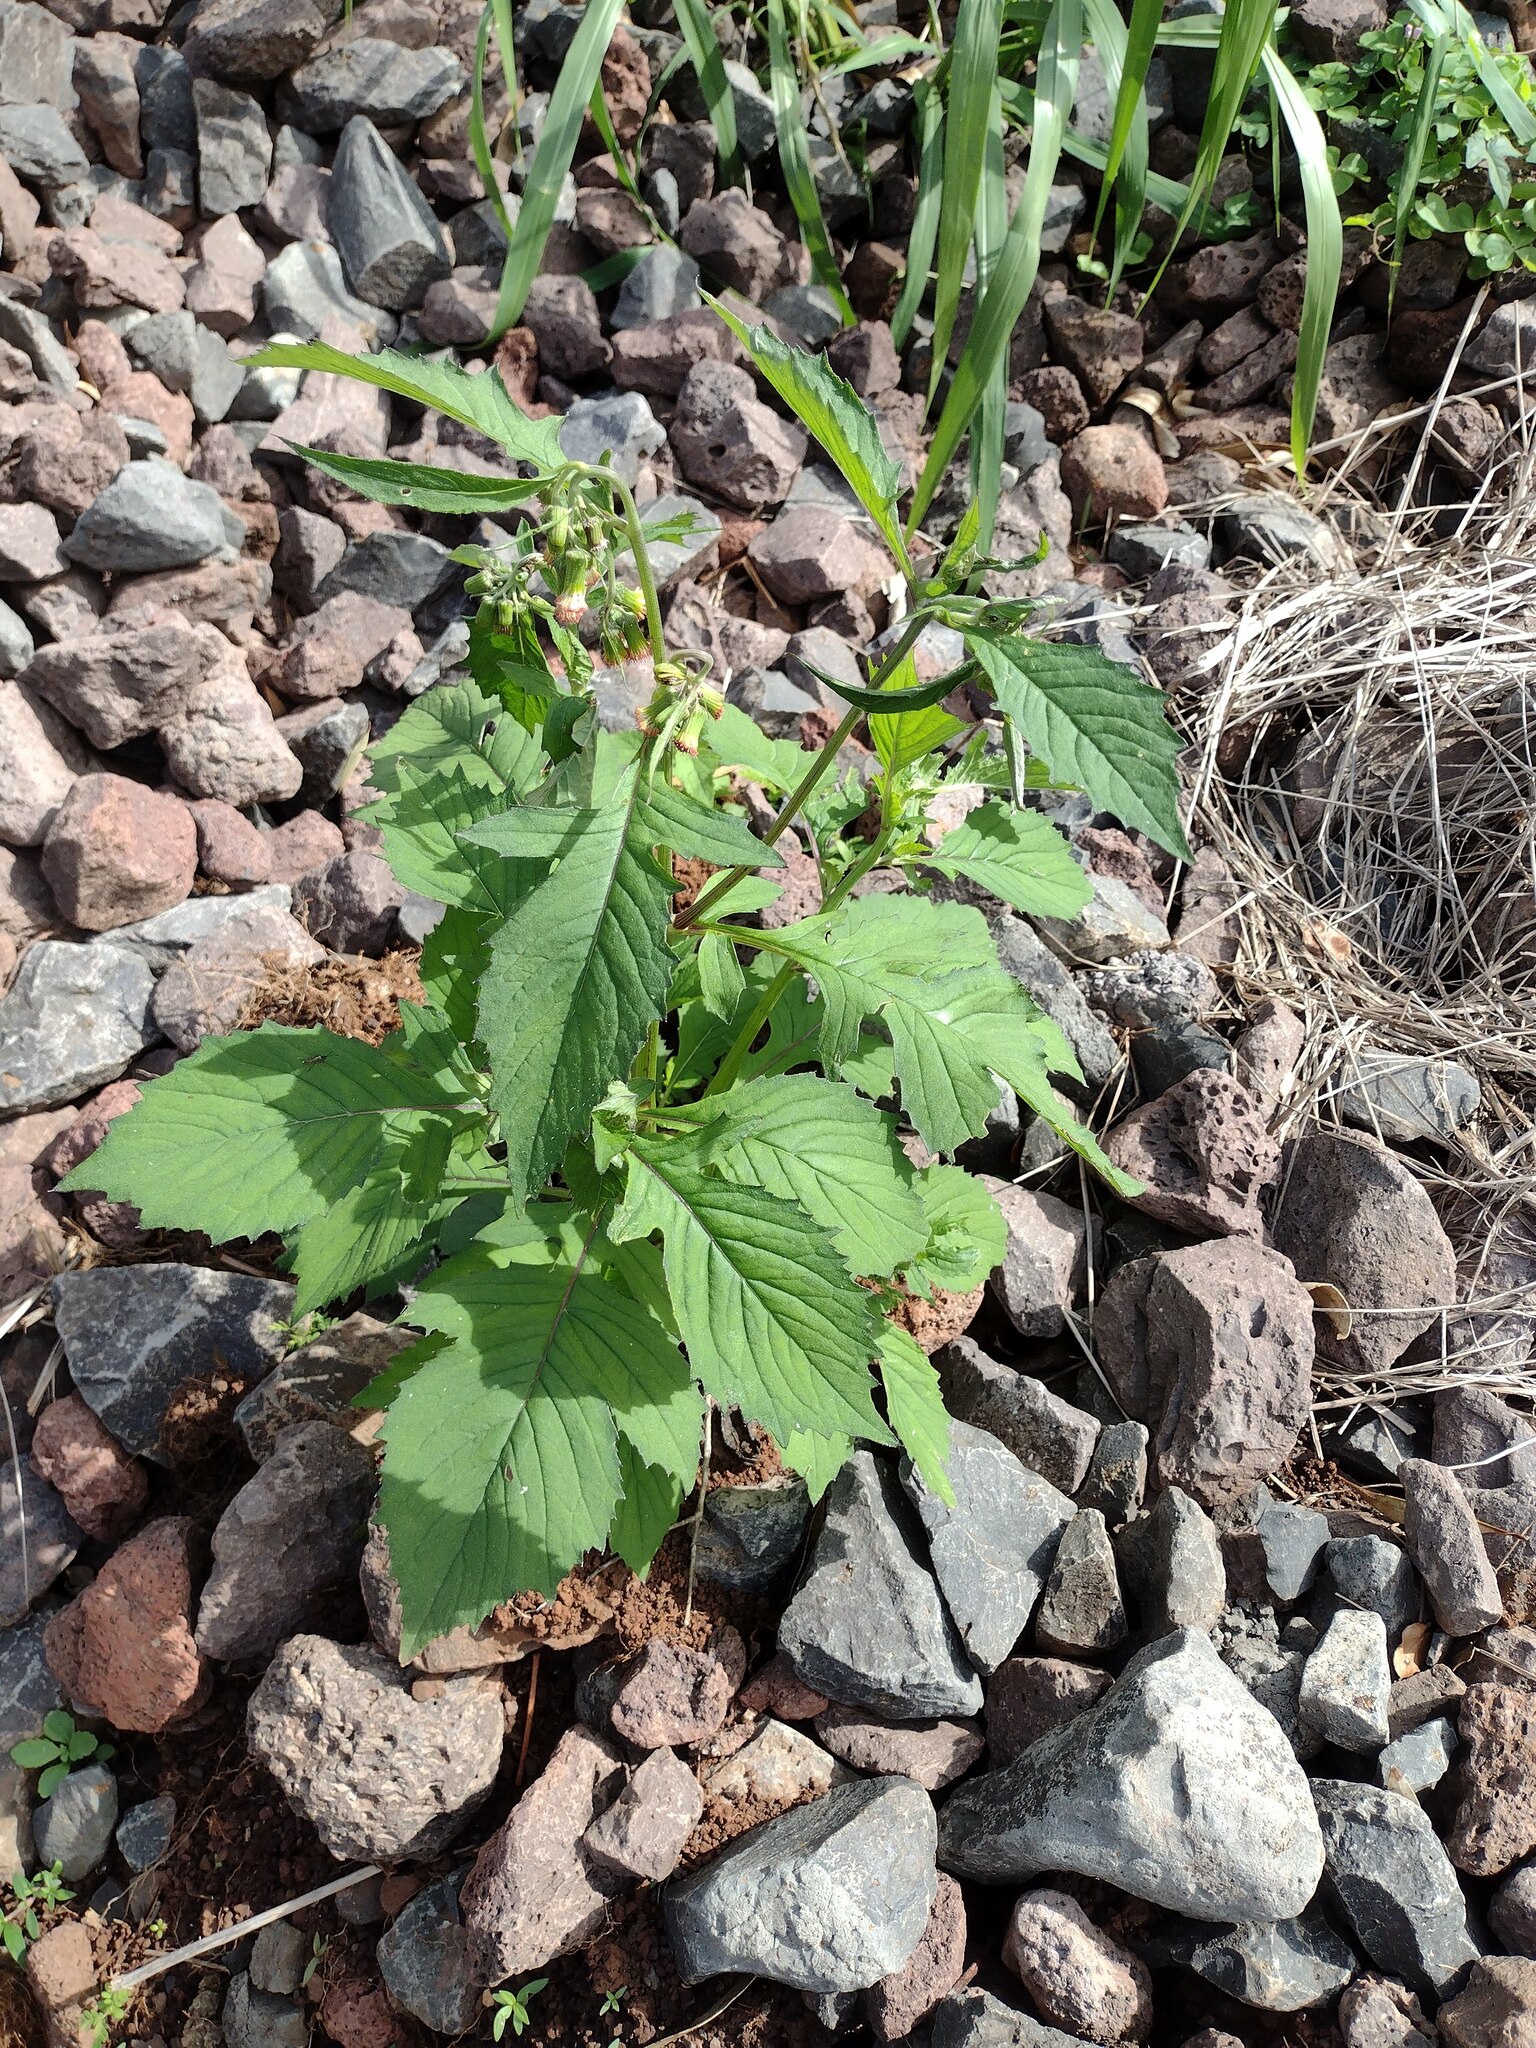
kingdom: Plantae
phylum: Tracheophyta
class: Magnoliopsida
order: Asterales
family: Asteraceae
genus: Crassocephalum
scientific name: Crassocephalum crepidioides
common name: Redflower ragleaf
